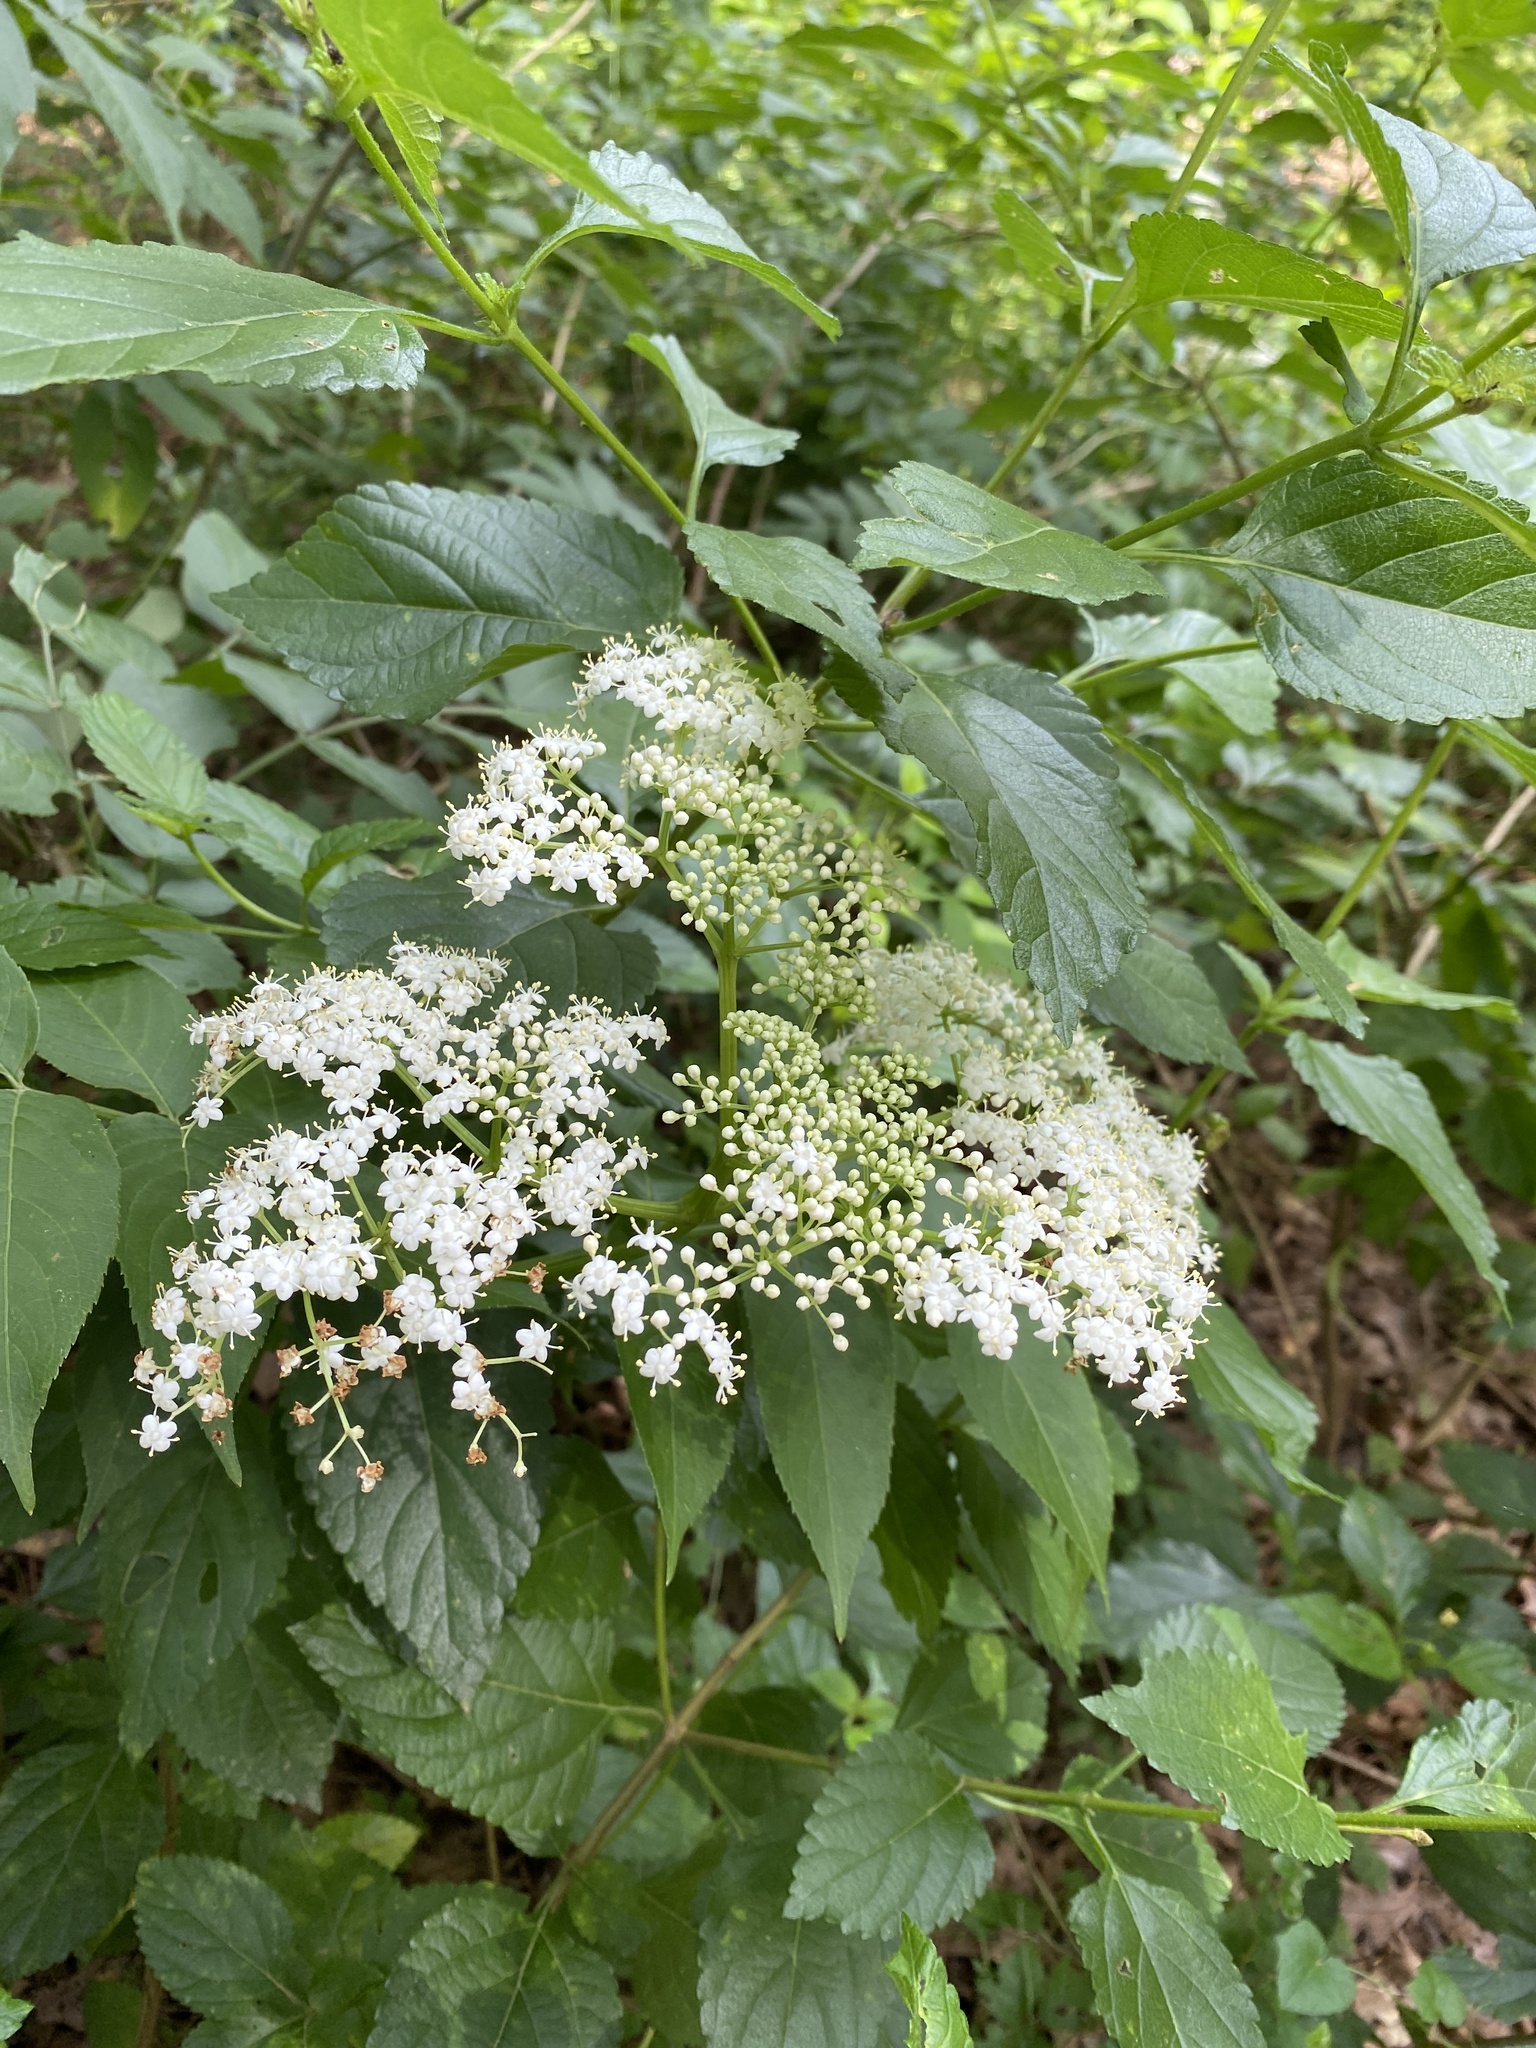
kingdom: Plantae
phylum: Tracheophyta
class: Magnoliopsida
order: Dipsacales
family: Viburnaceae
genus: Sambucus
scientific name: Sambucus canadensis
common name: American elder
